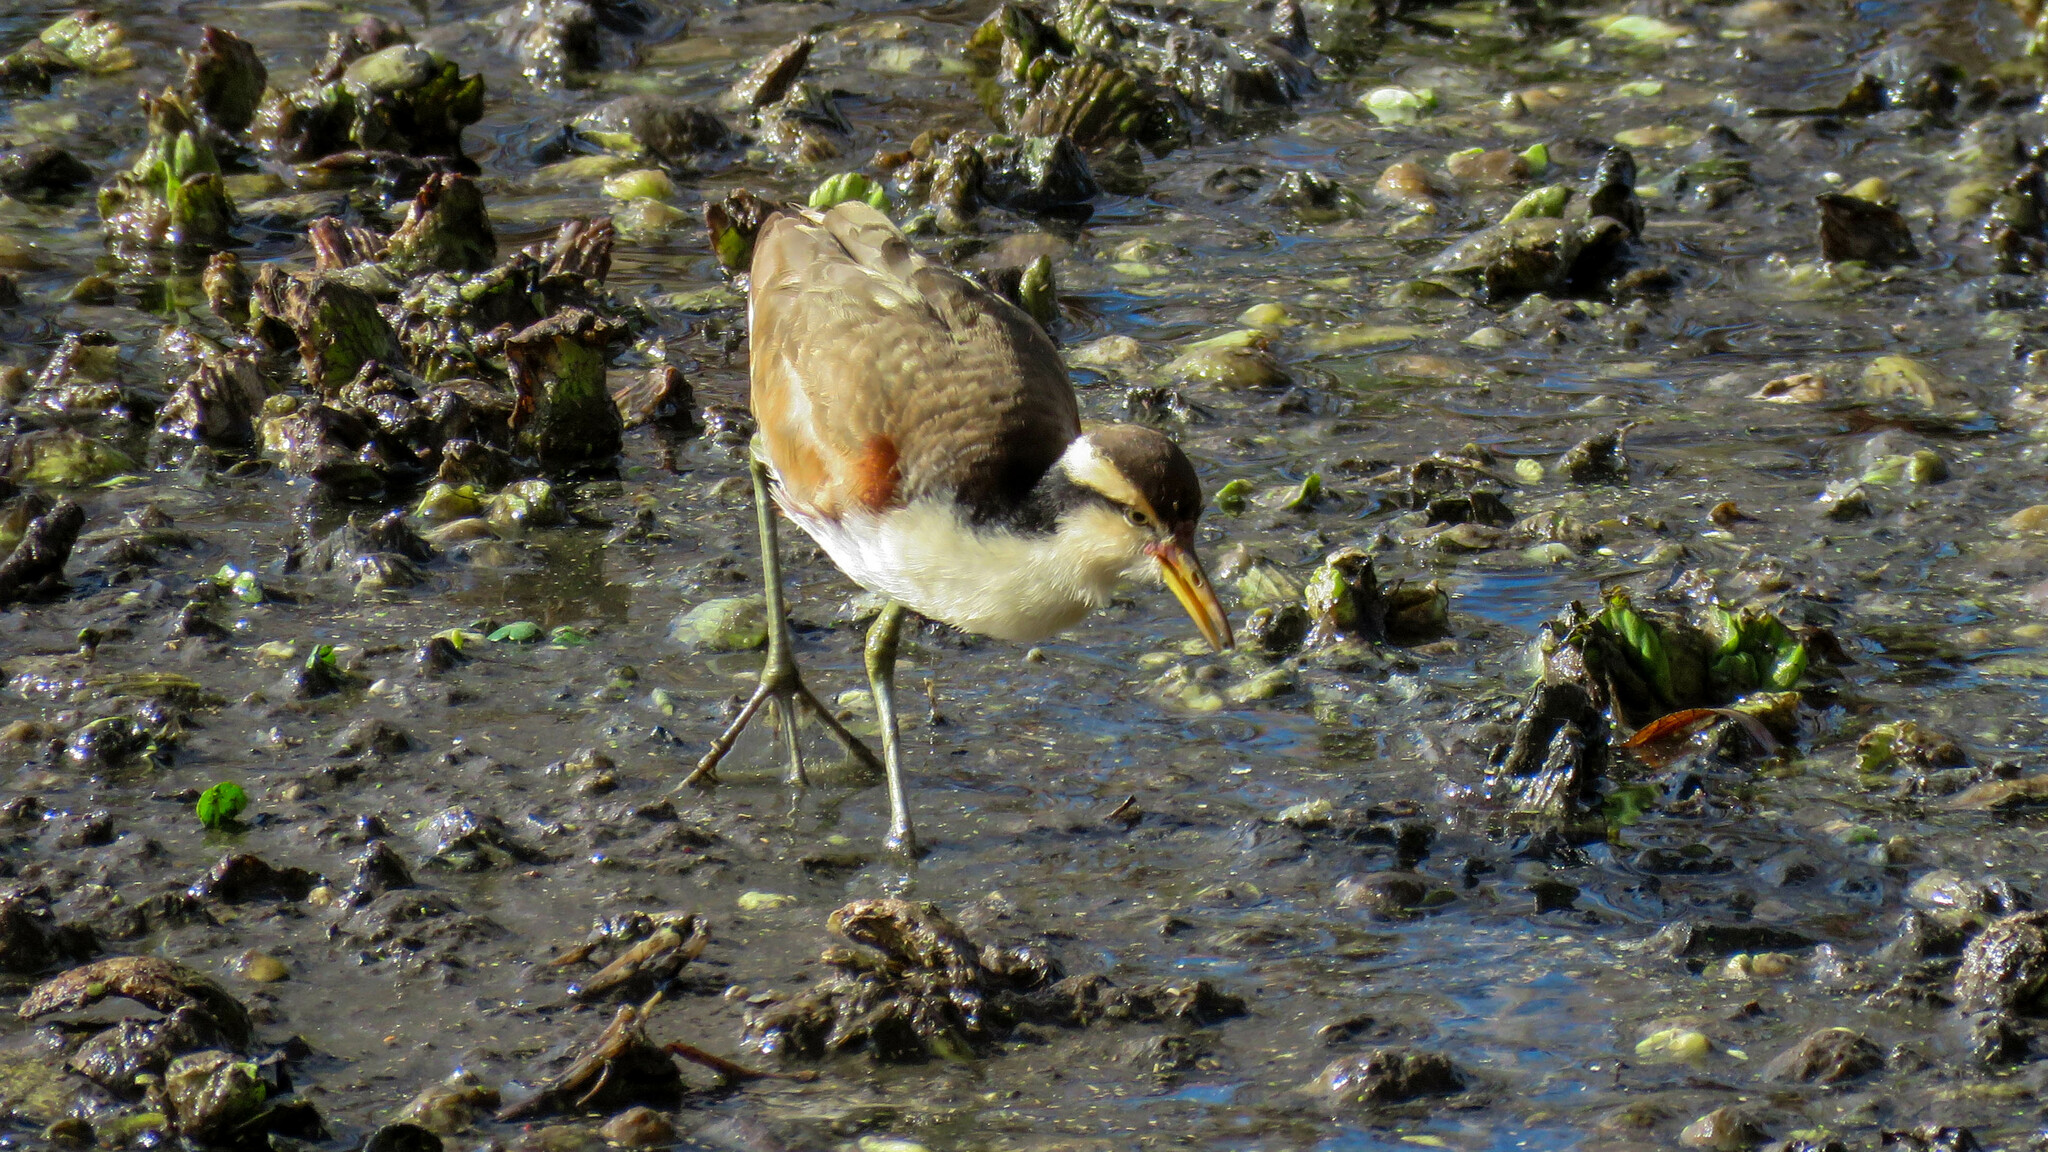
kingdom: Animalia
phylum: Chordata
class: Aves
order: Charadriiformes
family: Jacanidae
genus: Jacana
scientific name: Jacana jacana
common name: Wattled jacana
